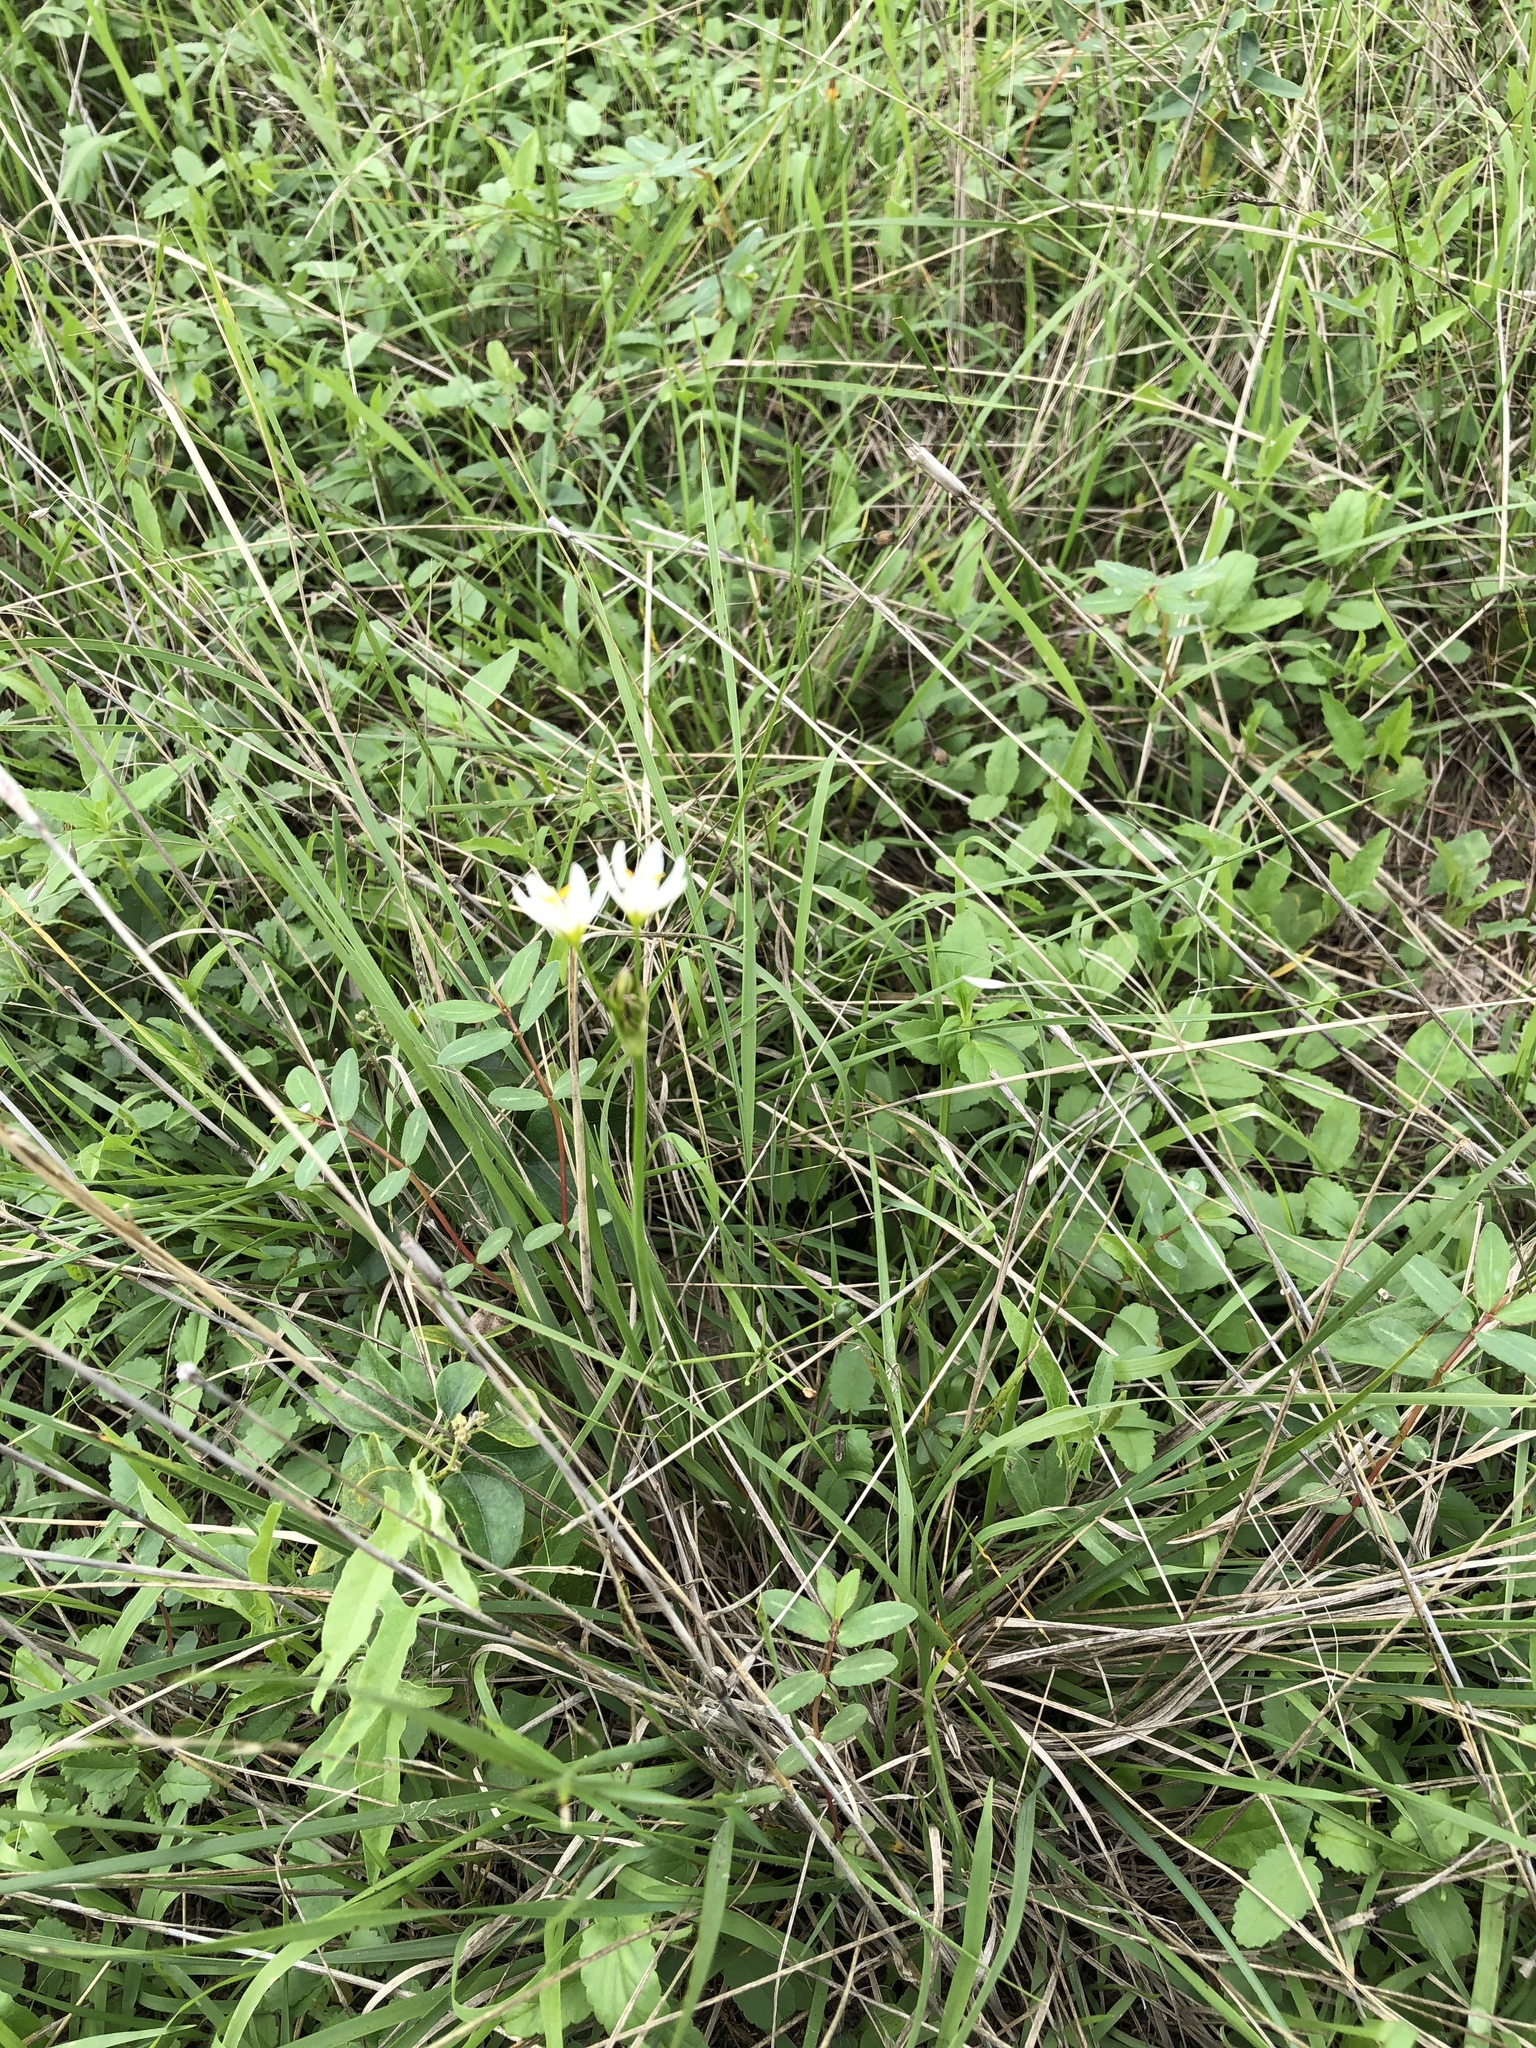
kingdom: Plantae
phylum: Tracheophyta
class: Liliopsida
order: Asparagales
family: Amaryllidaceae
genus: Nothoscordum
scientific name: Nothoscordum bivalve
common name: Crow-poison
